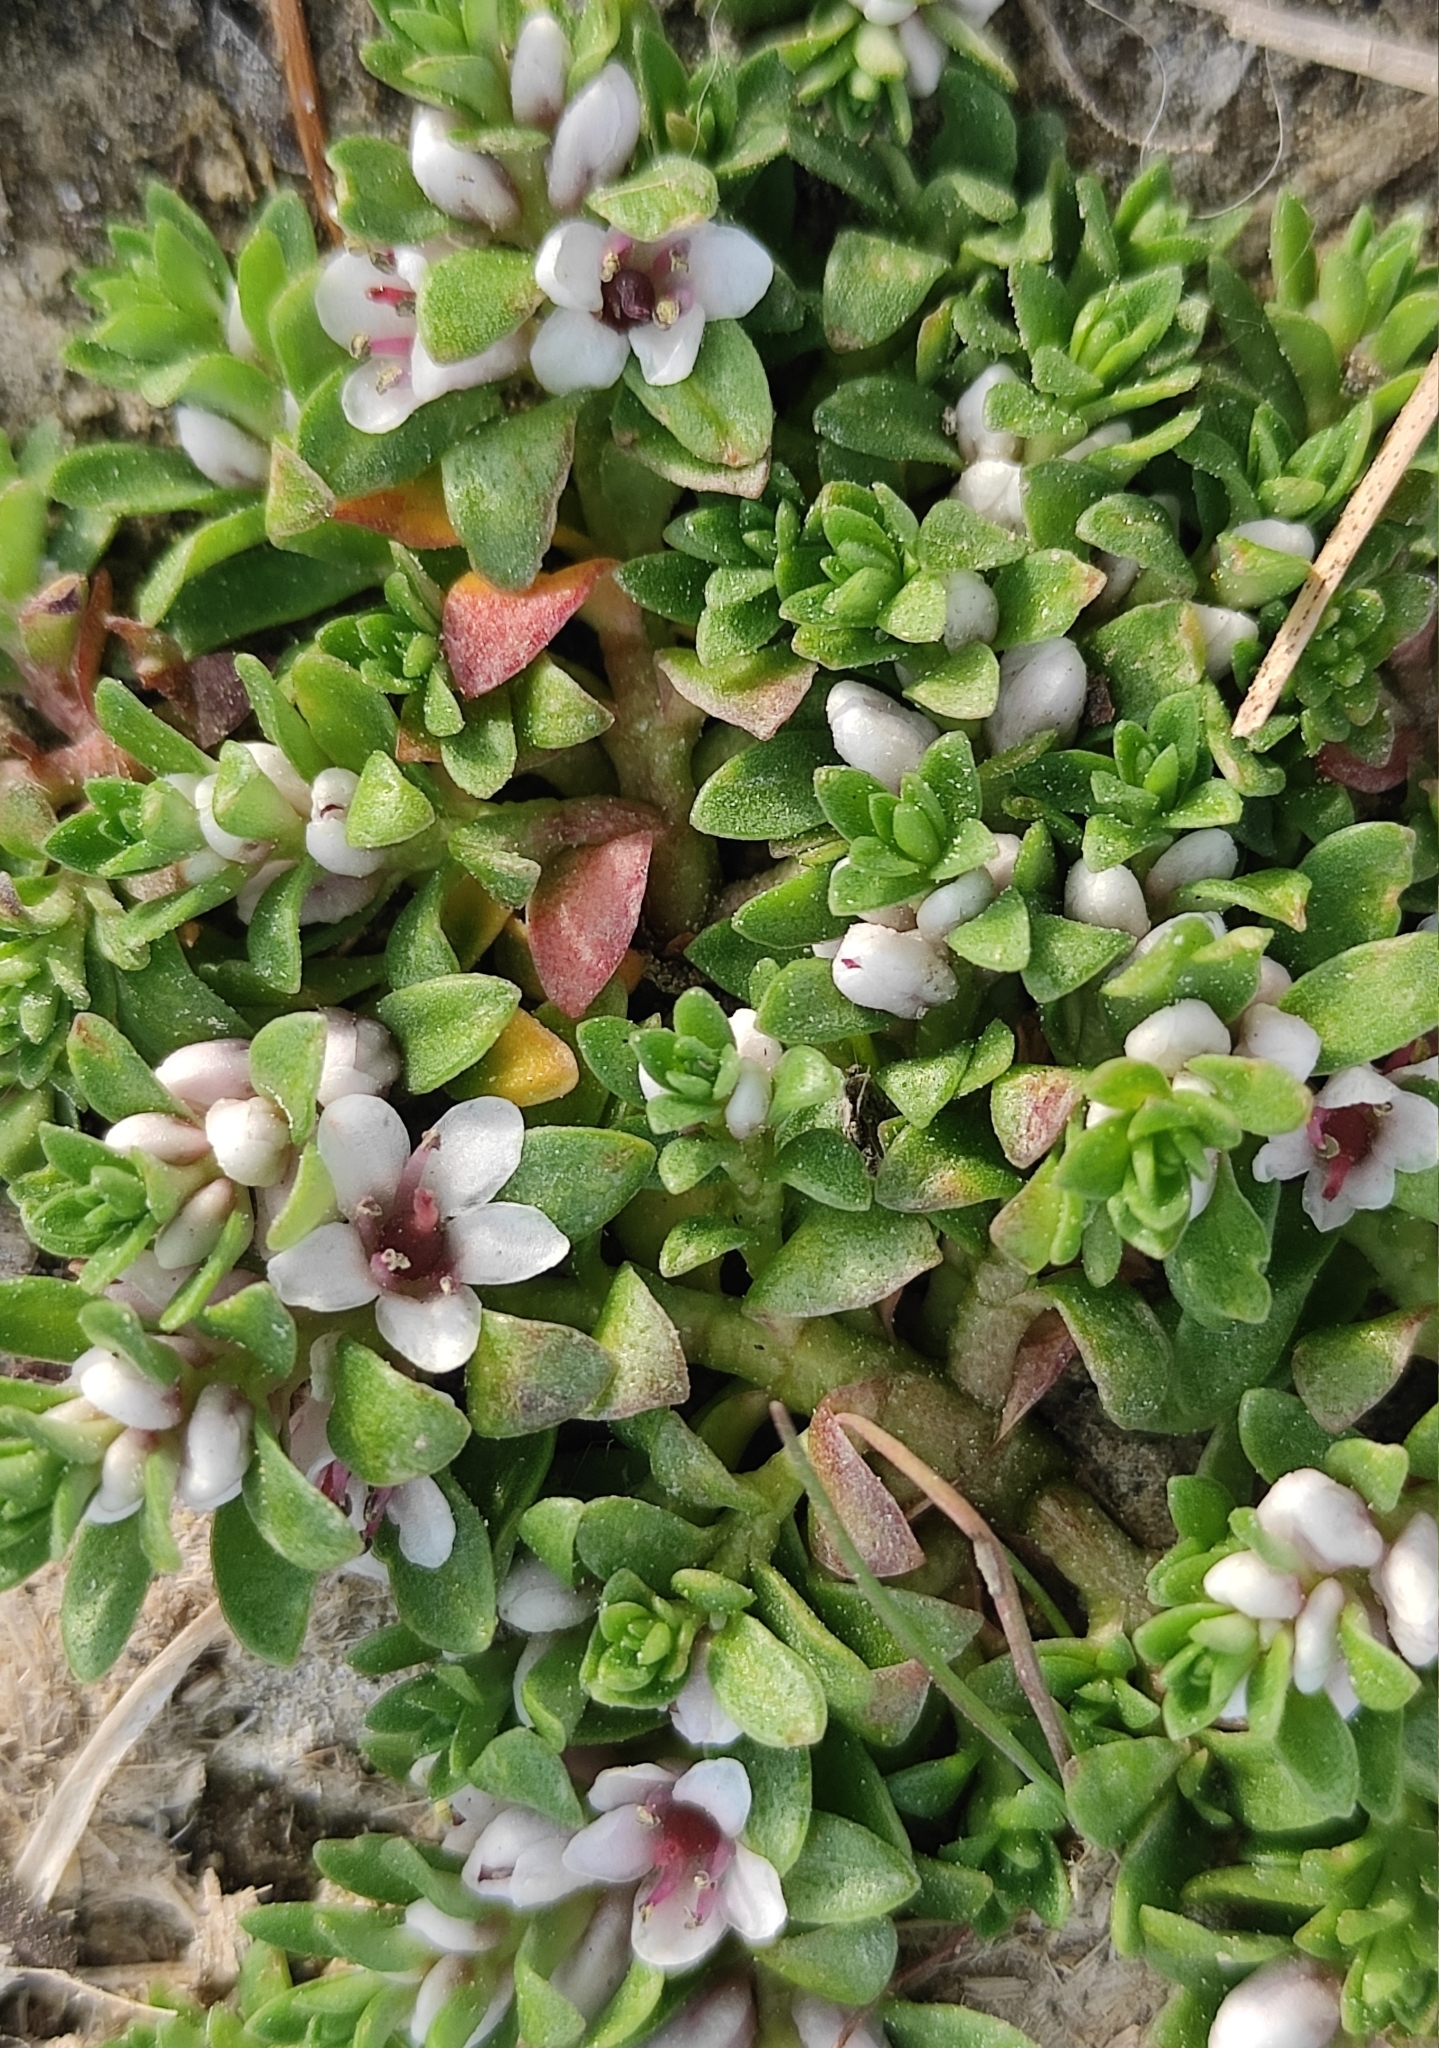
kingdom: Plantae
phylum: Tracheophyta
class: Magnoliopsida
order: Ericales
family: Primulaceae
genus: Lysimachia
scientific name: Lysimachia maritima
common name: Sea milkwort
